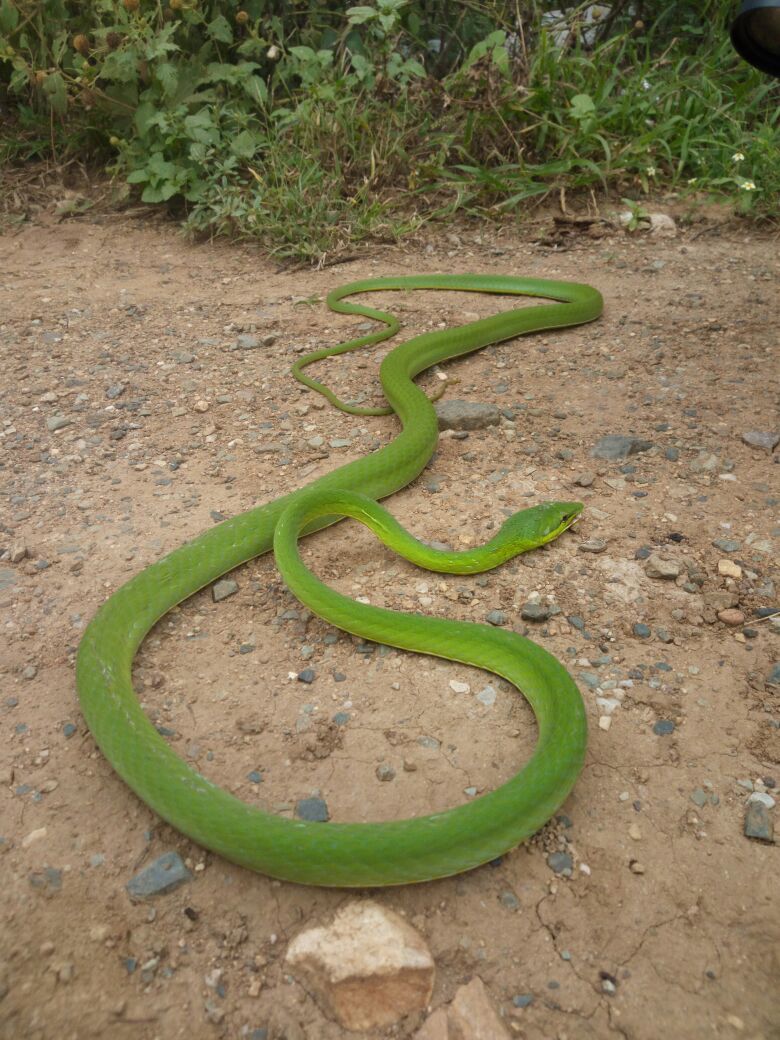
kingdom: Animalia
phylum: Chordata
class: Squamata
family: Colubridae
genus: Oxybelis
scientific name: Oxybelis fulgidus
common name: Green vine snake
